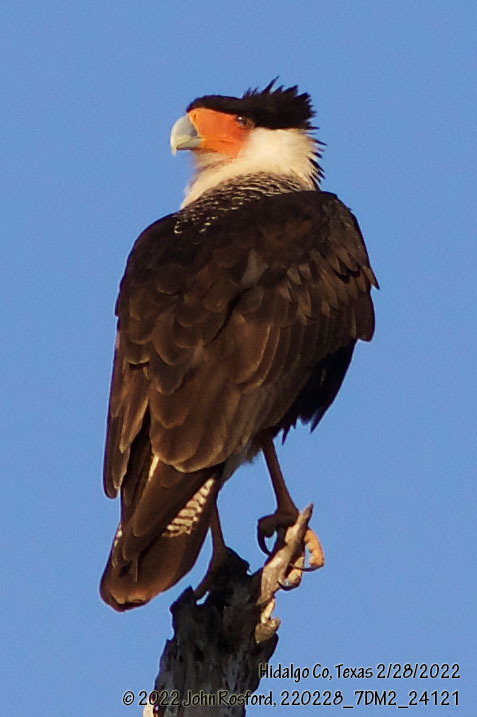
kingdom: Animalia
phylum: Chordata
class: Aves
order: Falconiformes
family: Falconidae
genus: Caracara
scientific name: Caracara plancus
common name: Southern caracara
